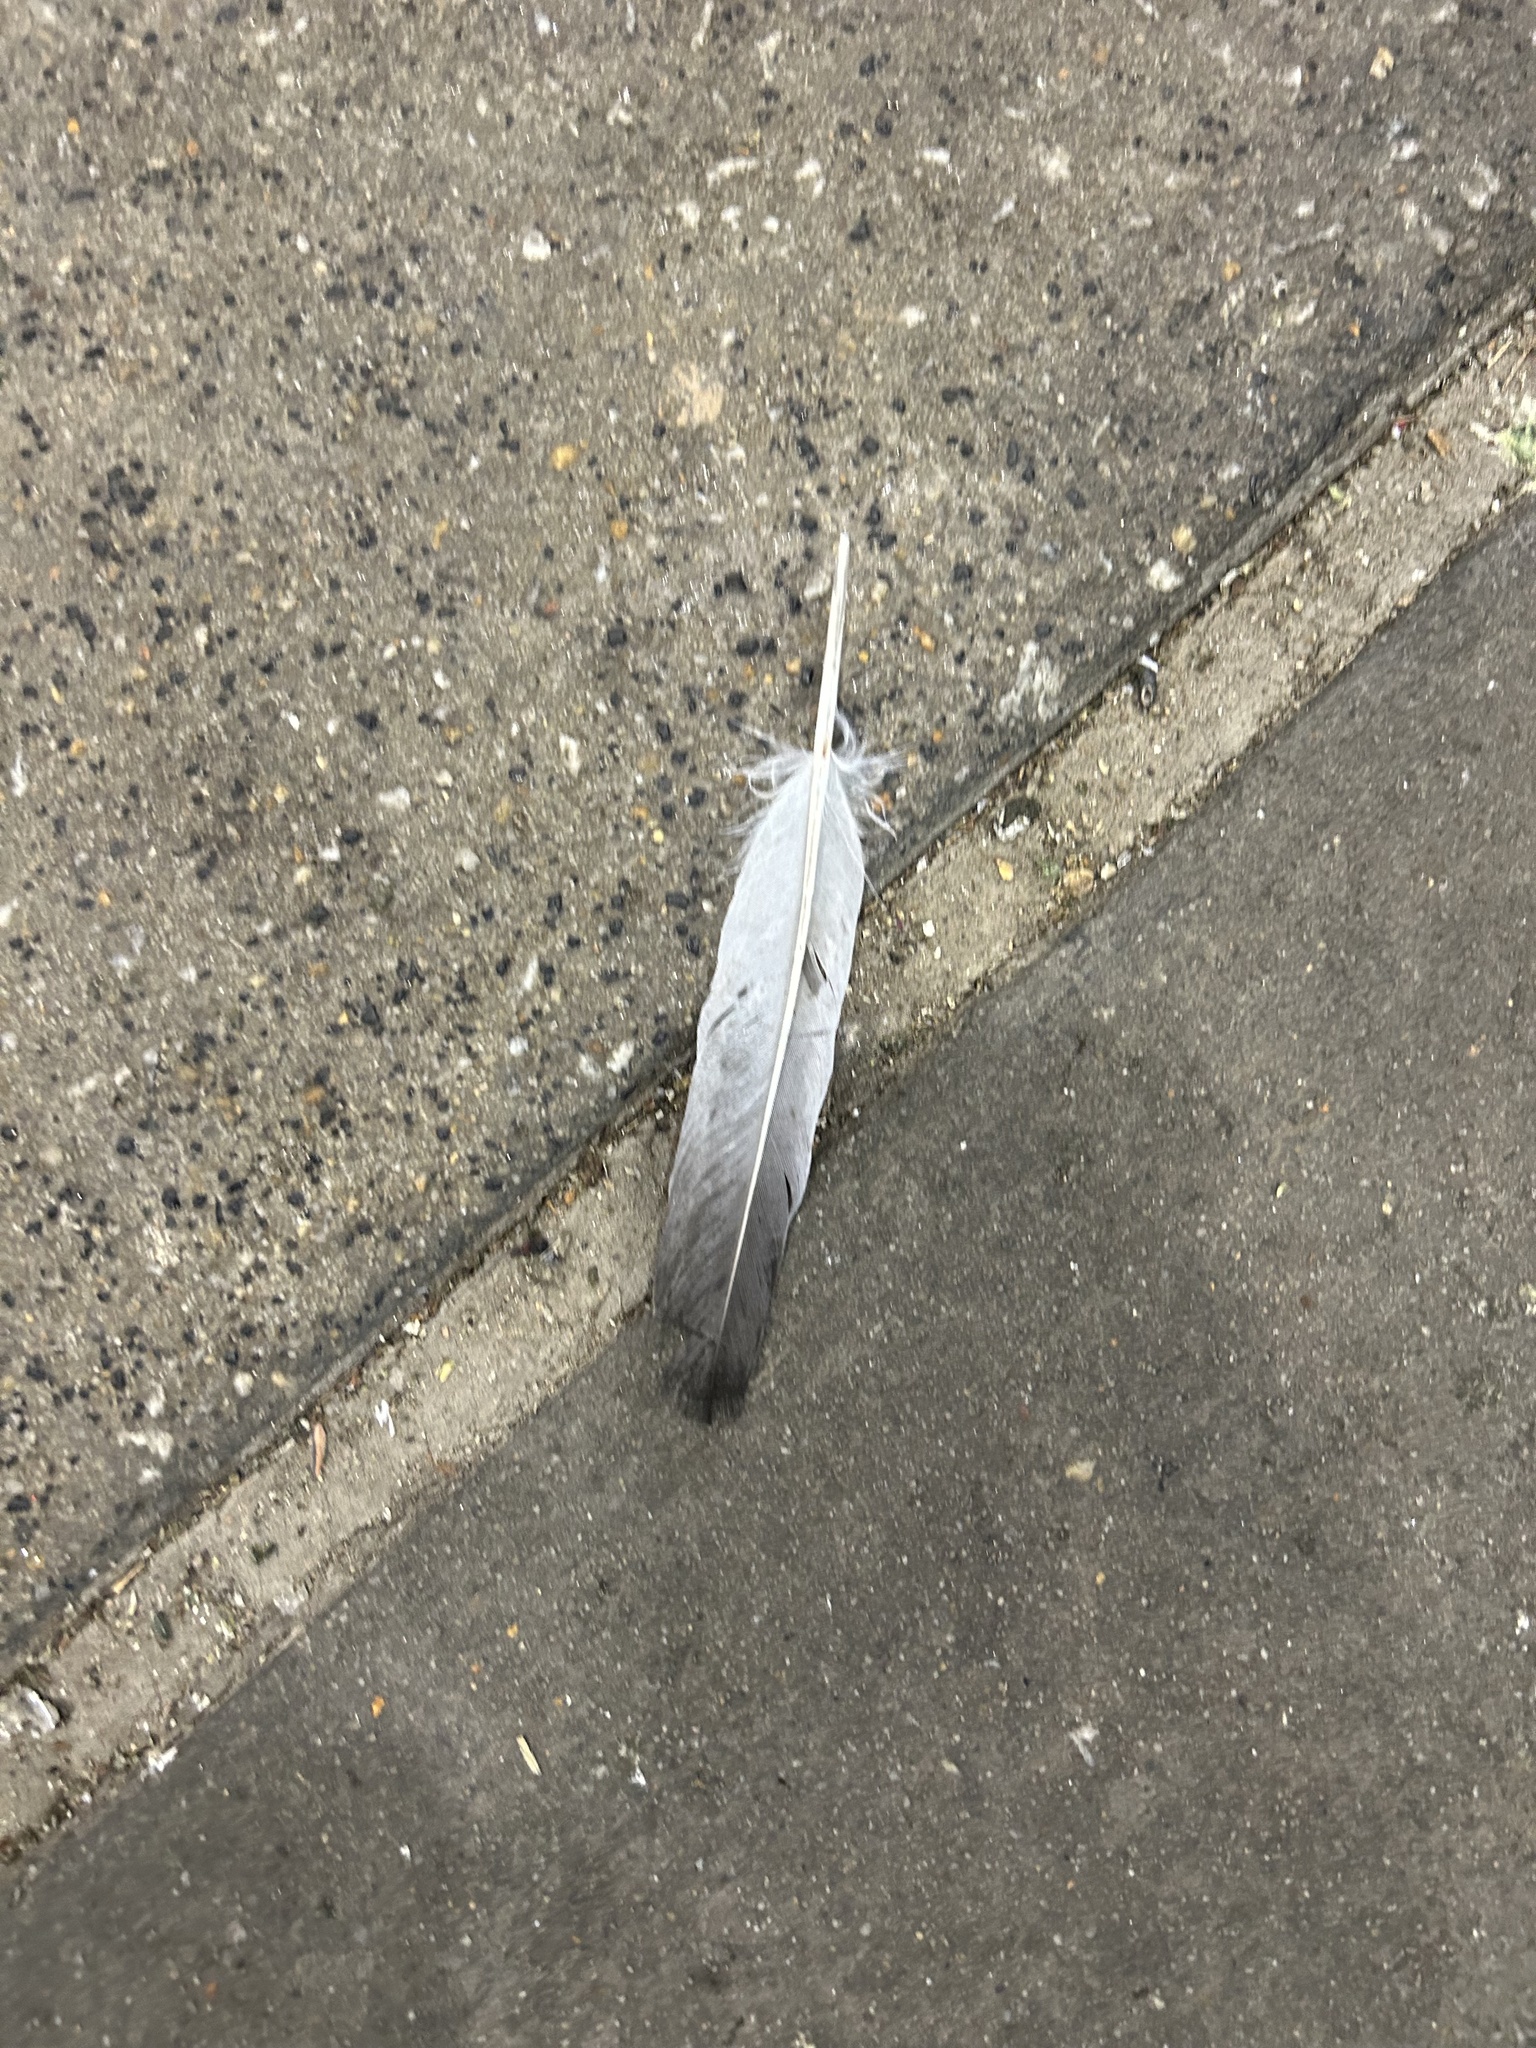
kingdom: Animalia
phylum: Chordata
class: Aves
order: Columbiformes
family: Columbidae
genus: Columba
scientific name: Columba livia
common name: Rock pigeon
